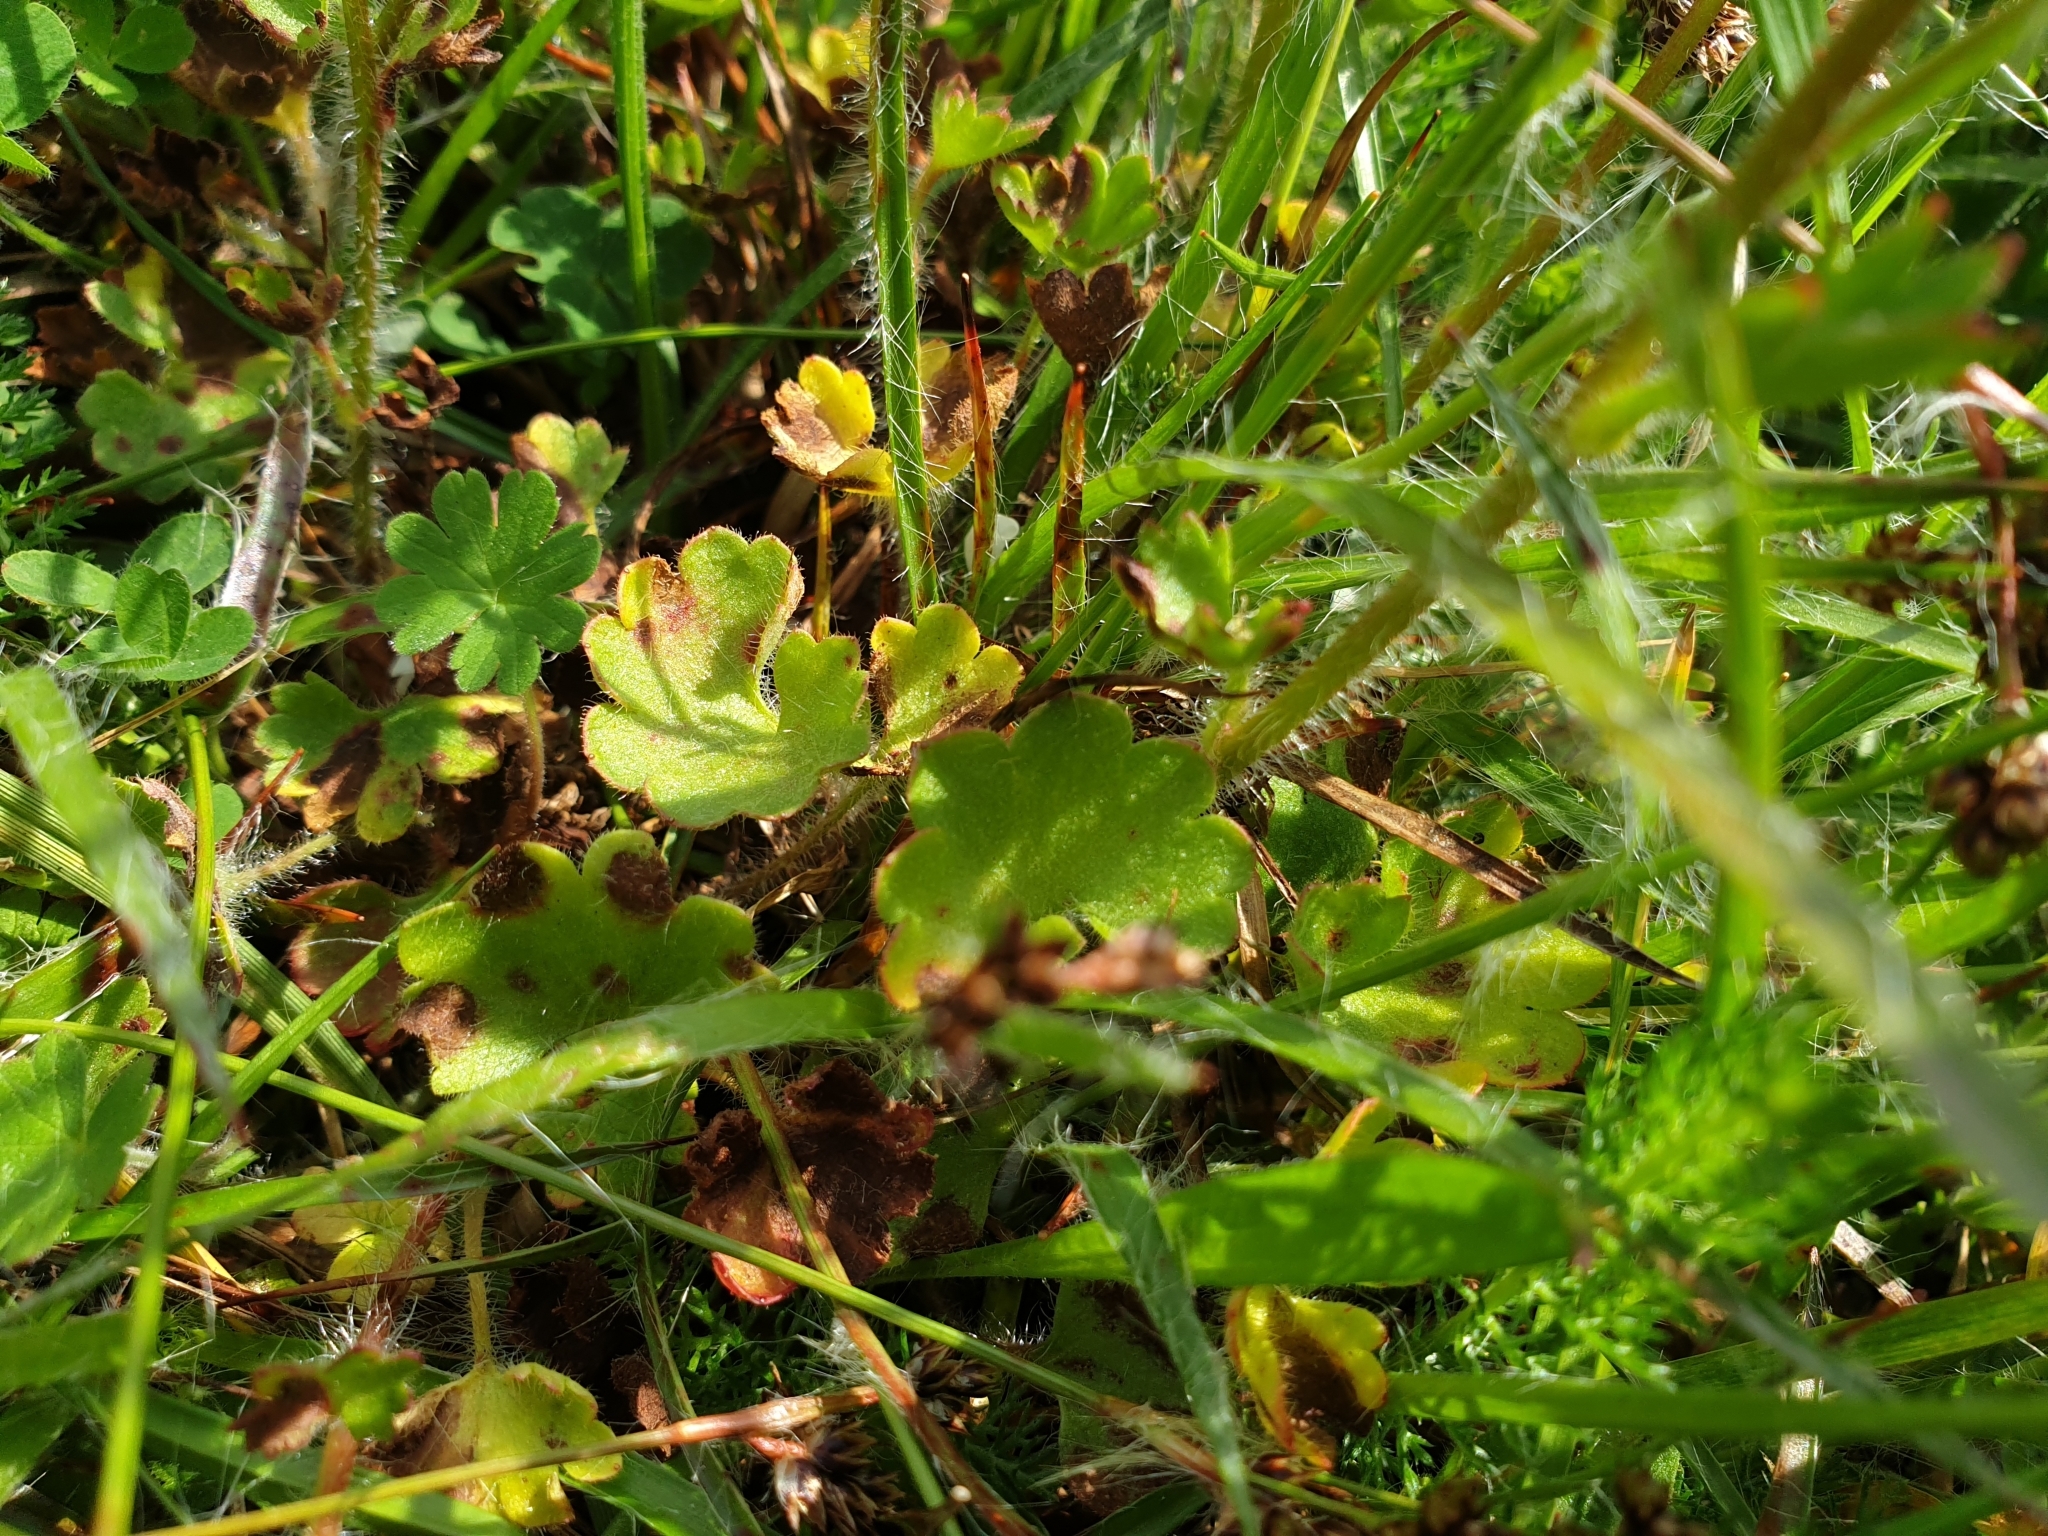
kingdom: Plantae
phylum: Tracheophyta
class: Magnoliopsida
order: Saxifragales
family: Saxifragaceae
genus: Saxifraga
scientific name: Saxifraga granulata
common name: Meadow saxifrage
